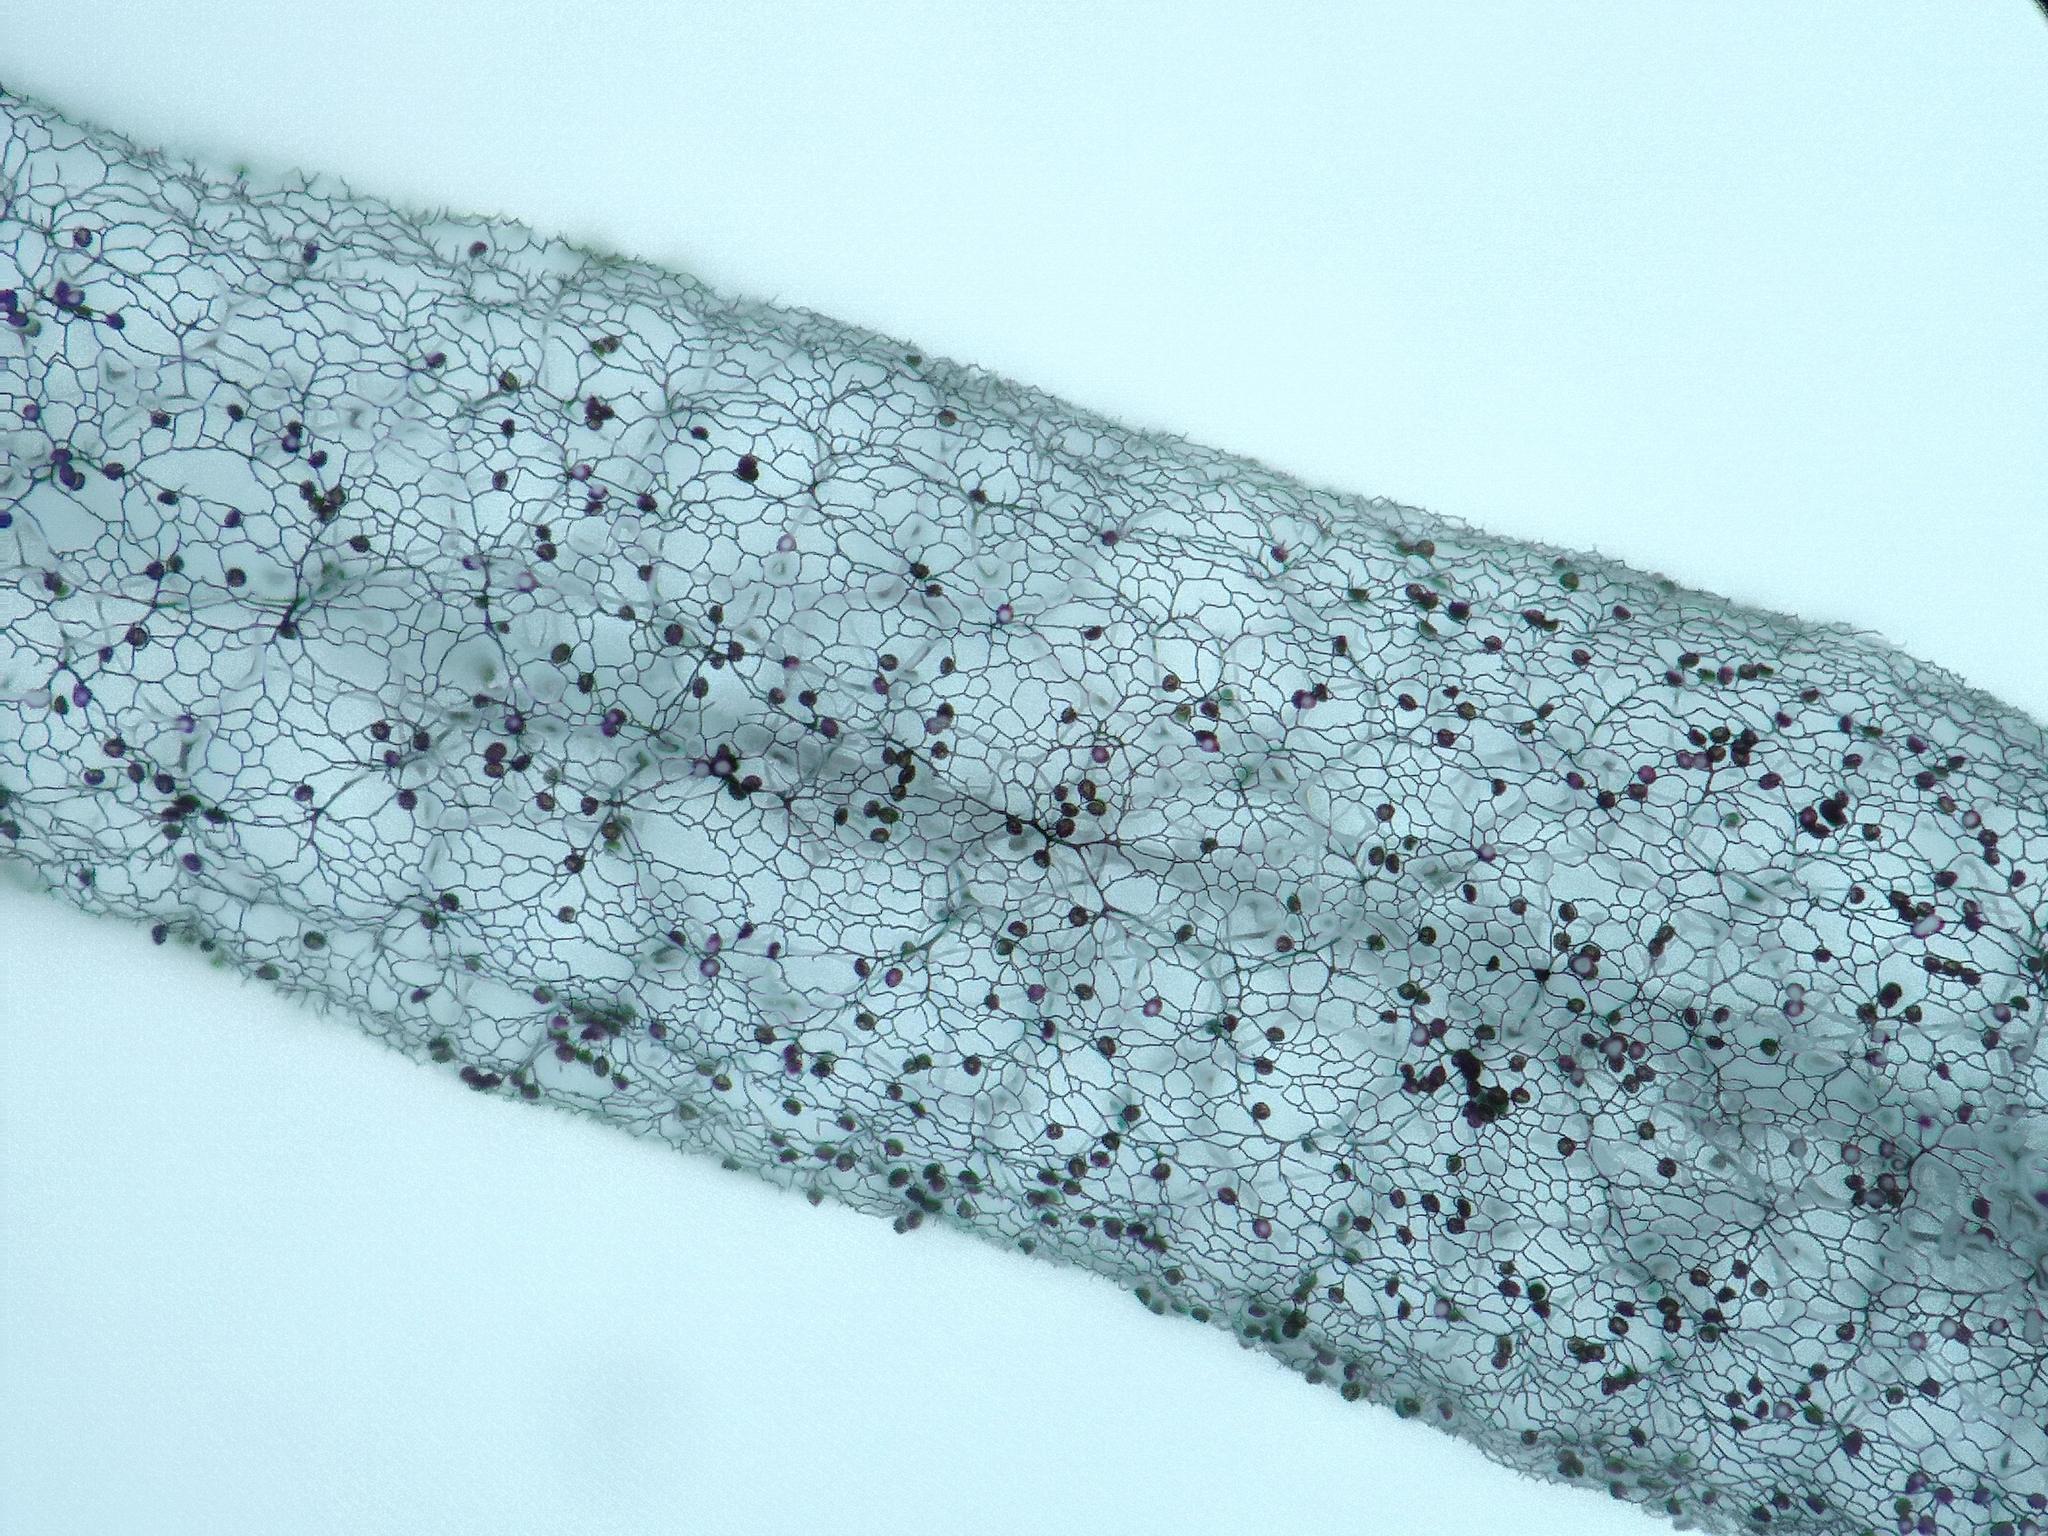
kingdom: Protozoa
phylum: Mycetozoa
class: Myxomycetes
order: Stemonitidales
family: Stemonitidaceae
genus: Stemonitis
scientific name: Stemonitis fusca
